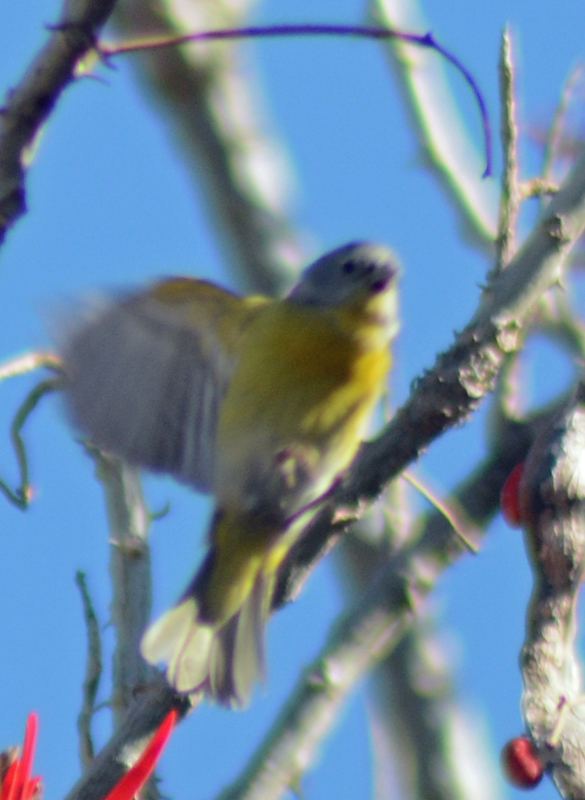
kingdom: Animalia
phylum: Chordata
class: Aves
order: Passeriformes
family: Parulidae
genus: Leiothlypis
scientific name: Leiothlypis ruficapilla
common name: Nashville warbler
